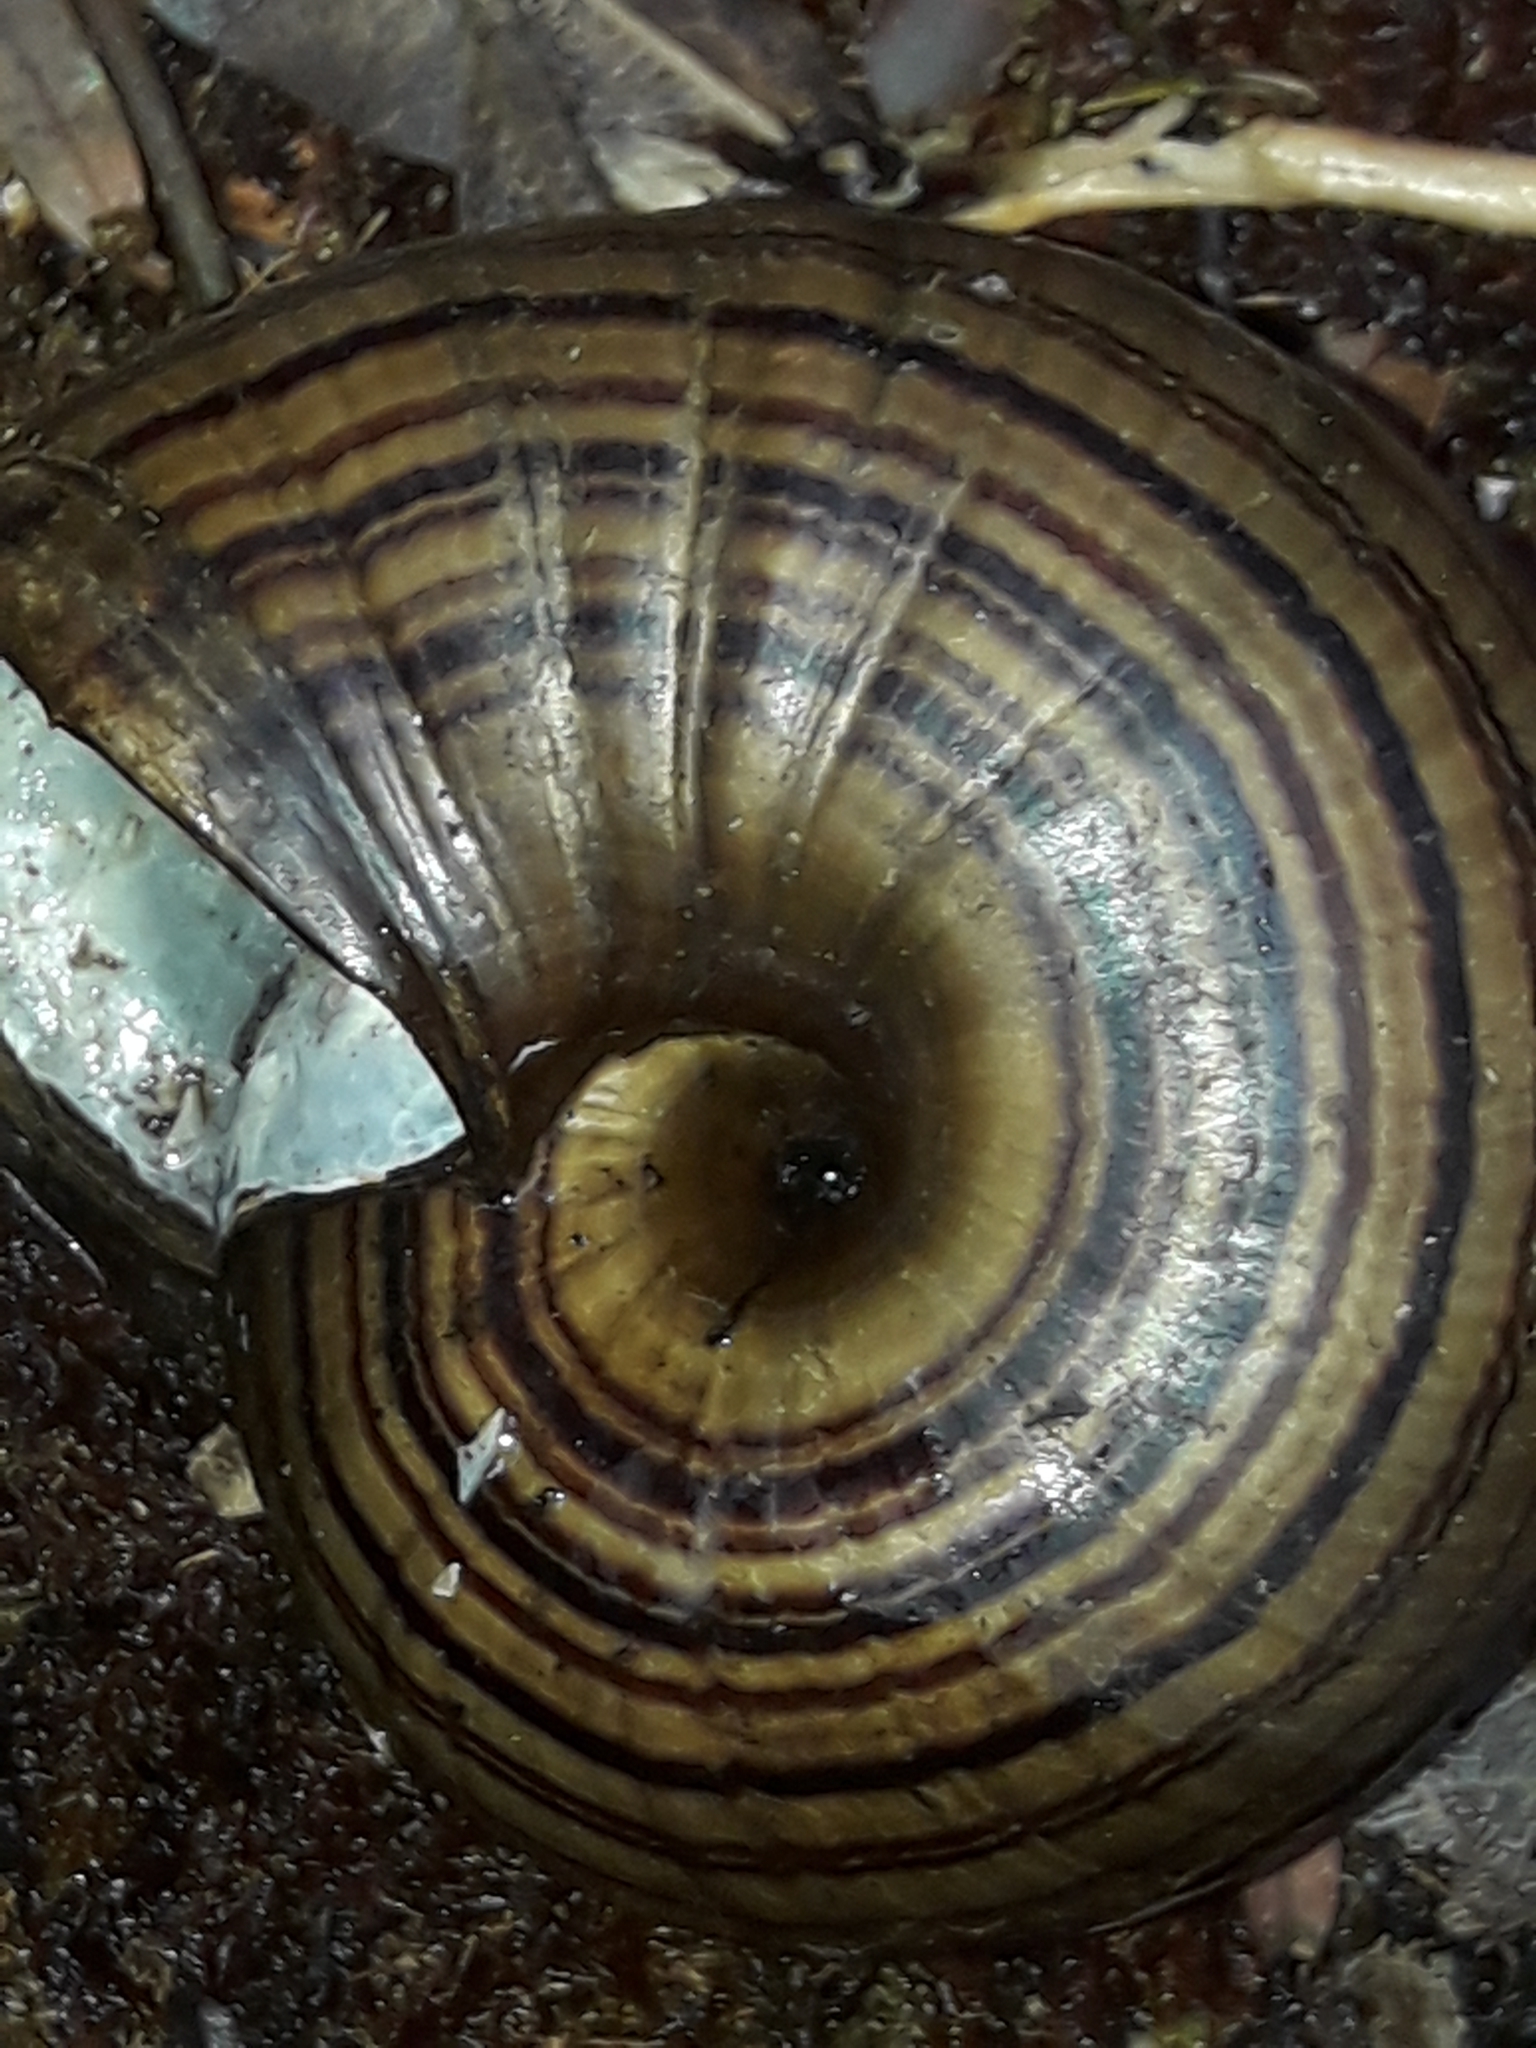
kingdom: Animalia
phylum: Mollusca
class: Gastropoda
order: Stylommatophora
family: Rhytididae
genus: Powelliphanta
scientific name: Powelliphanta hochstetteri
